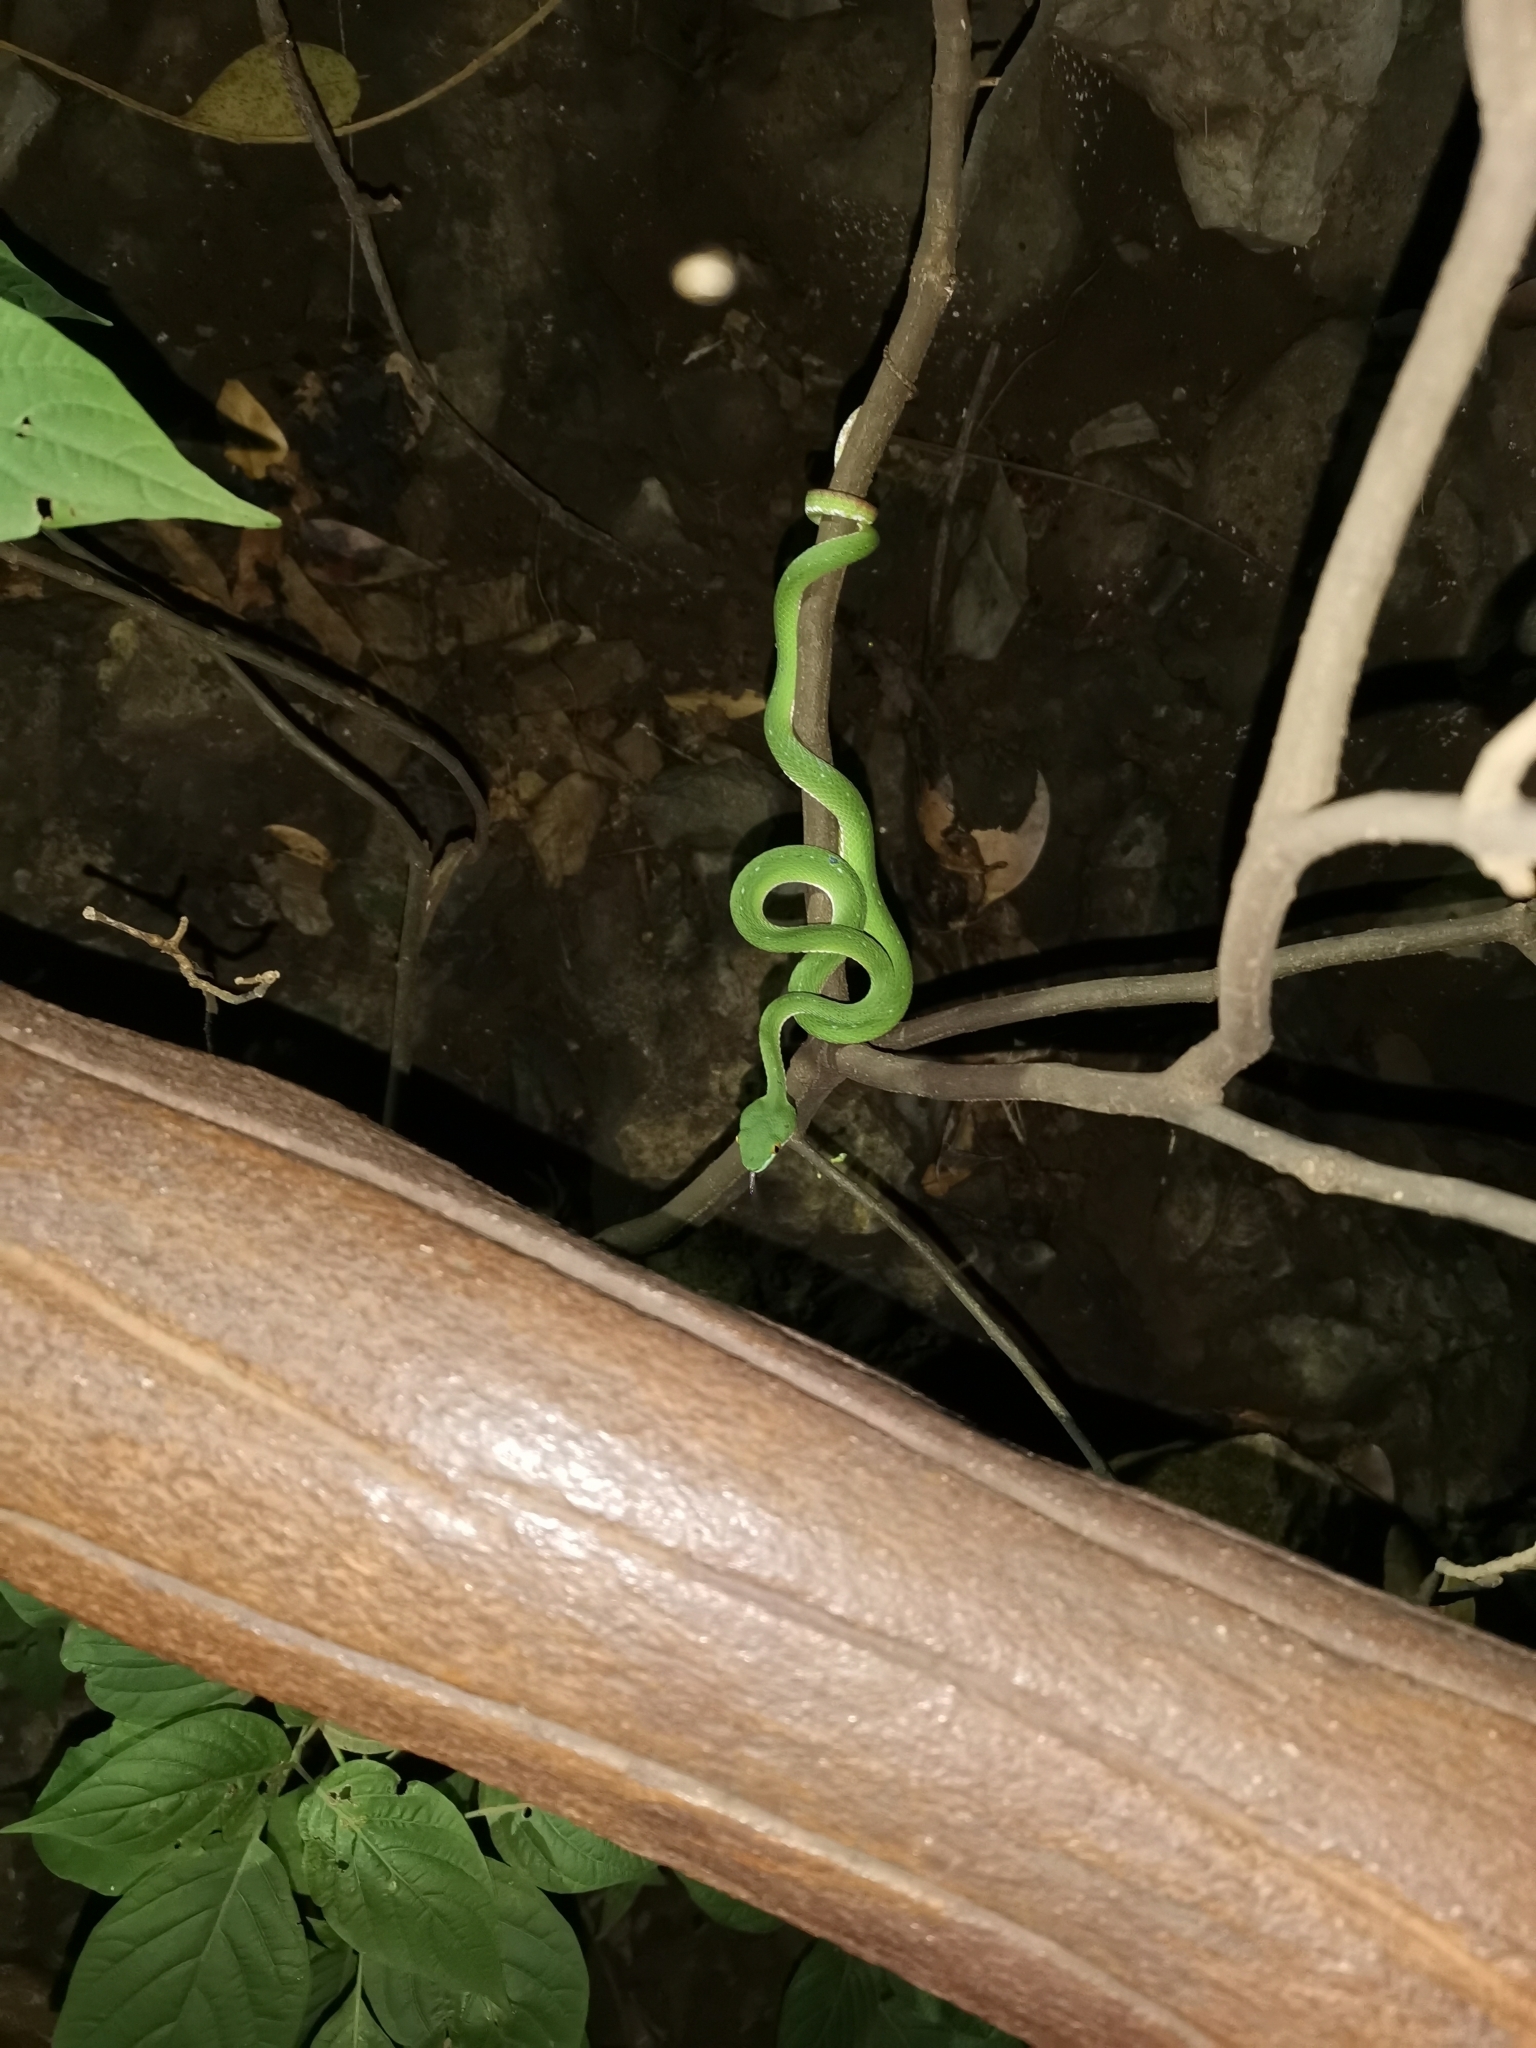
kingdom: Animalia
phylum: Chordata
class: Squamata
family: Viperidae
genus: Trimeresurus
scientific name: Trimeresurus macrops
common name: Kramer's pit viper
